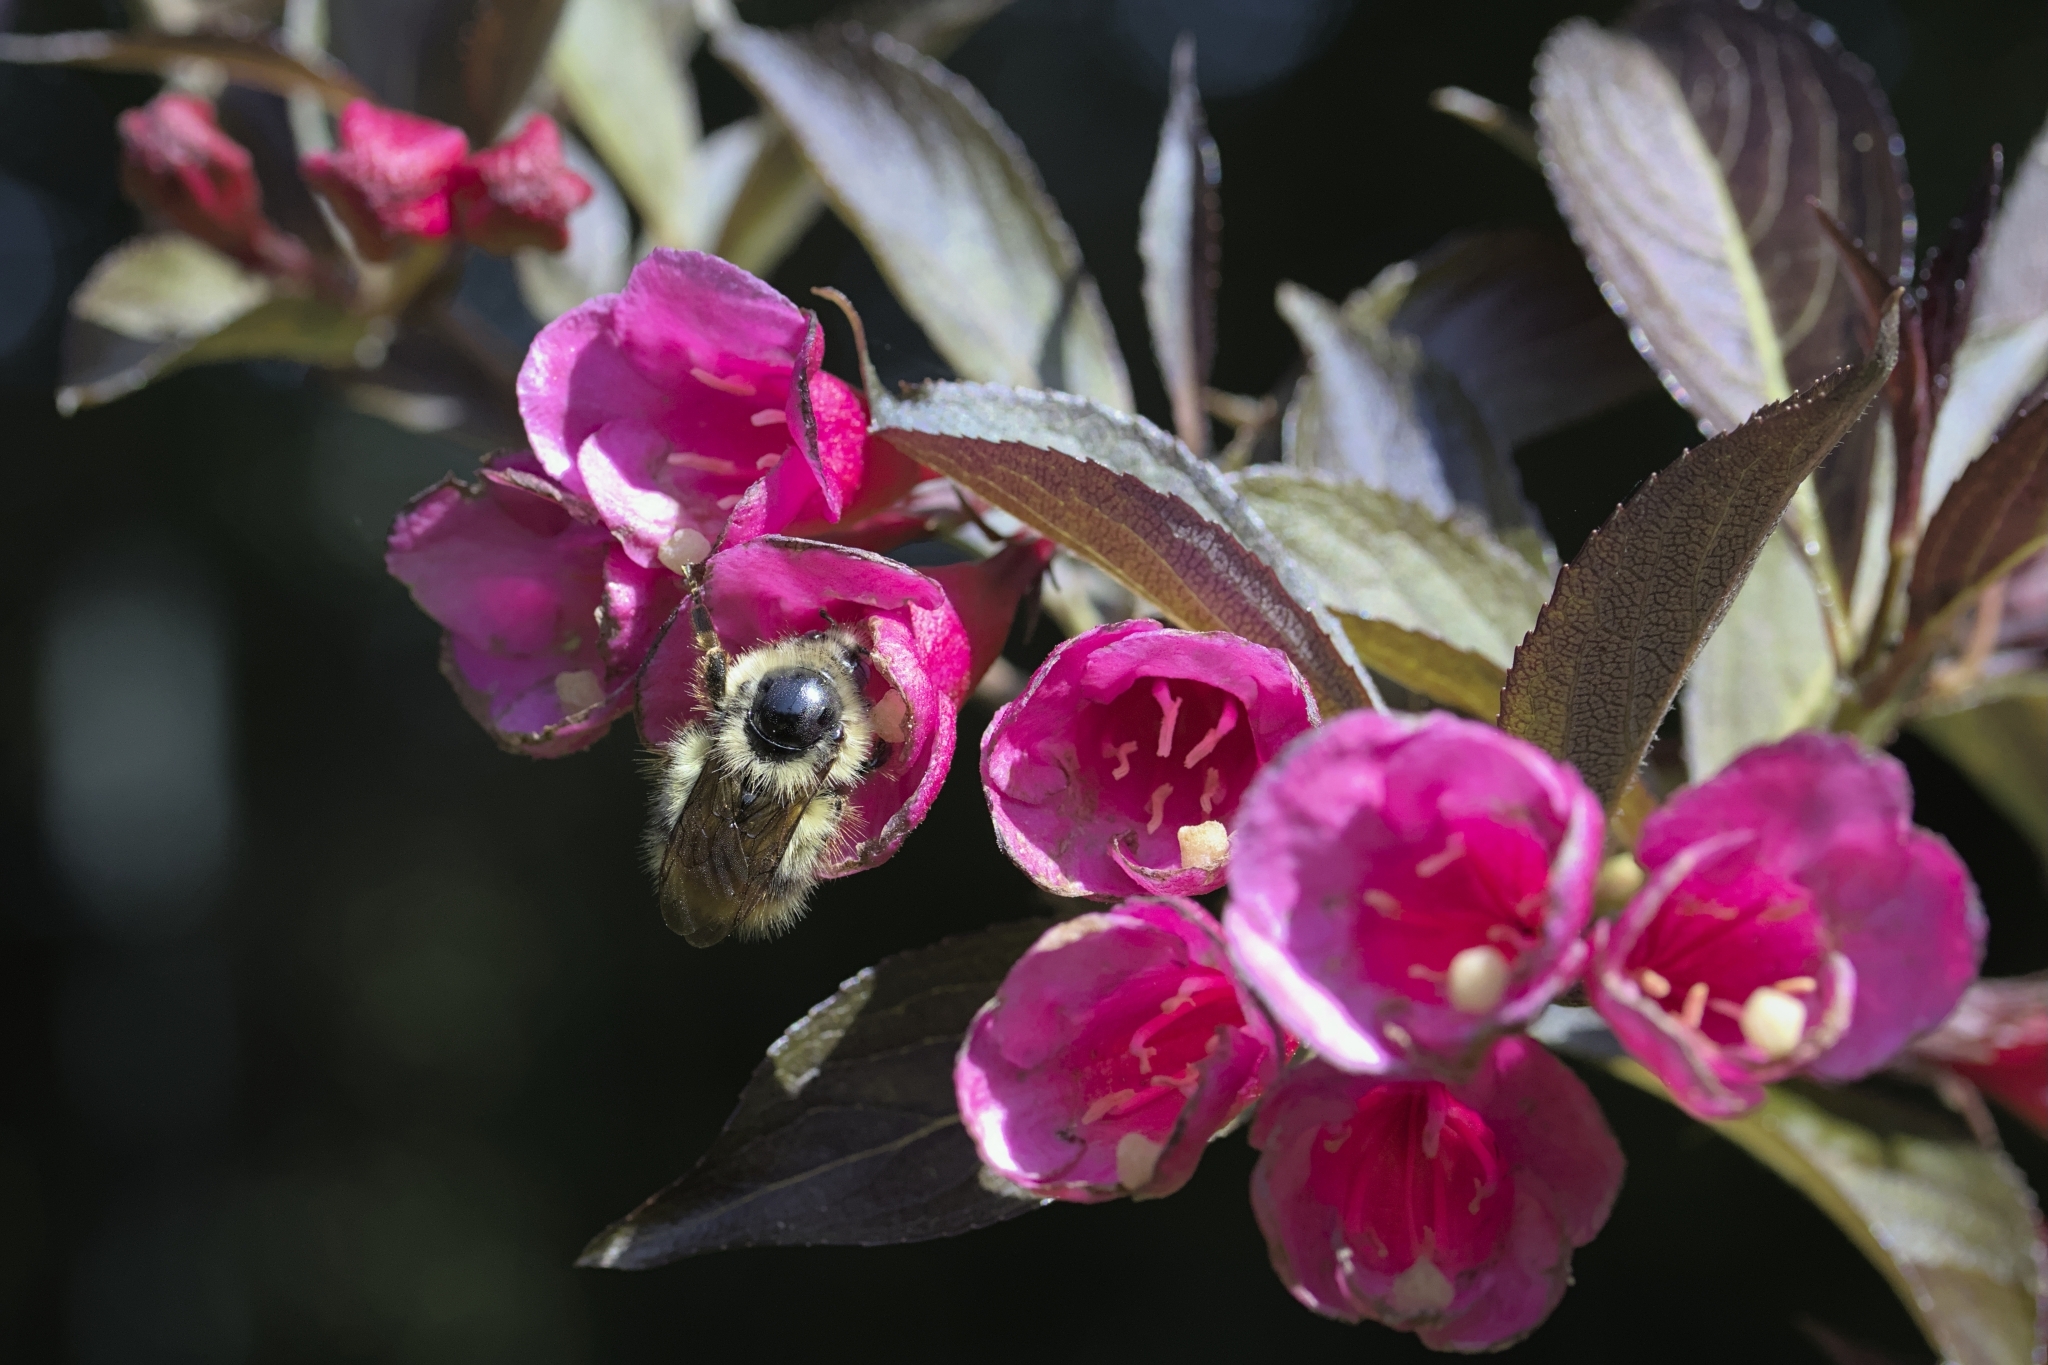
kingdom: Animalia
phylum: Arthropoda
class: Insecta
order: Hymenoptera
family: Apidae
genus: Bombus
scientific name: Bombus flavifrons
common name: Yellow head bumble bee
